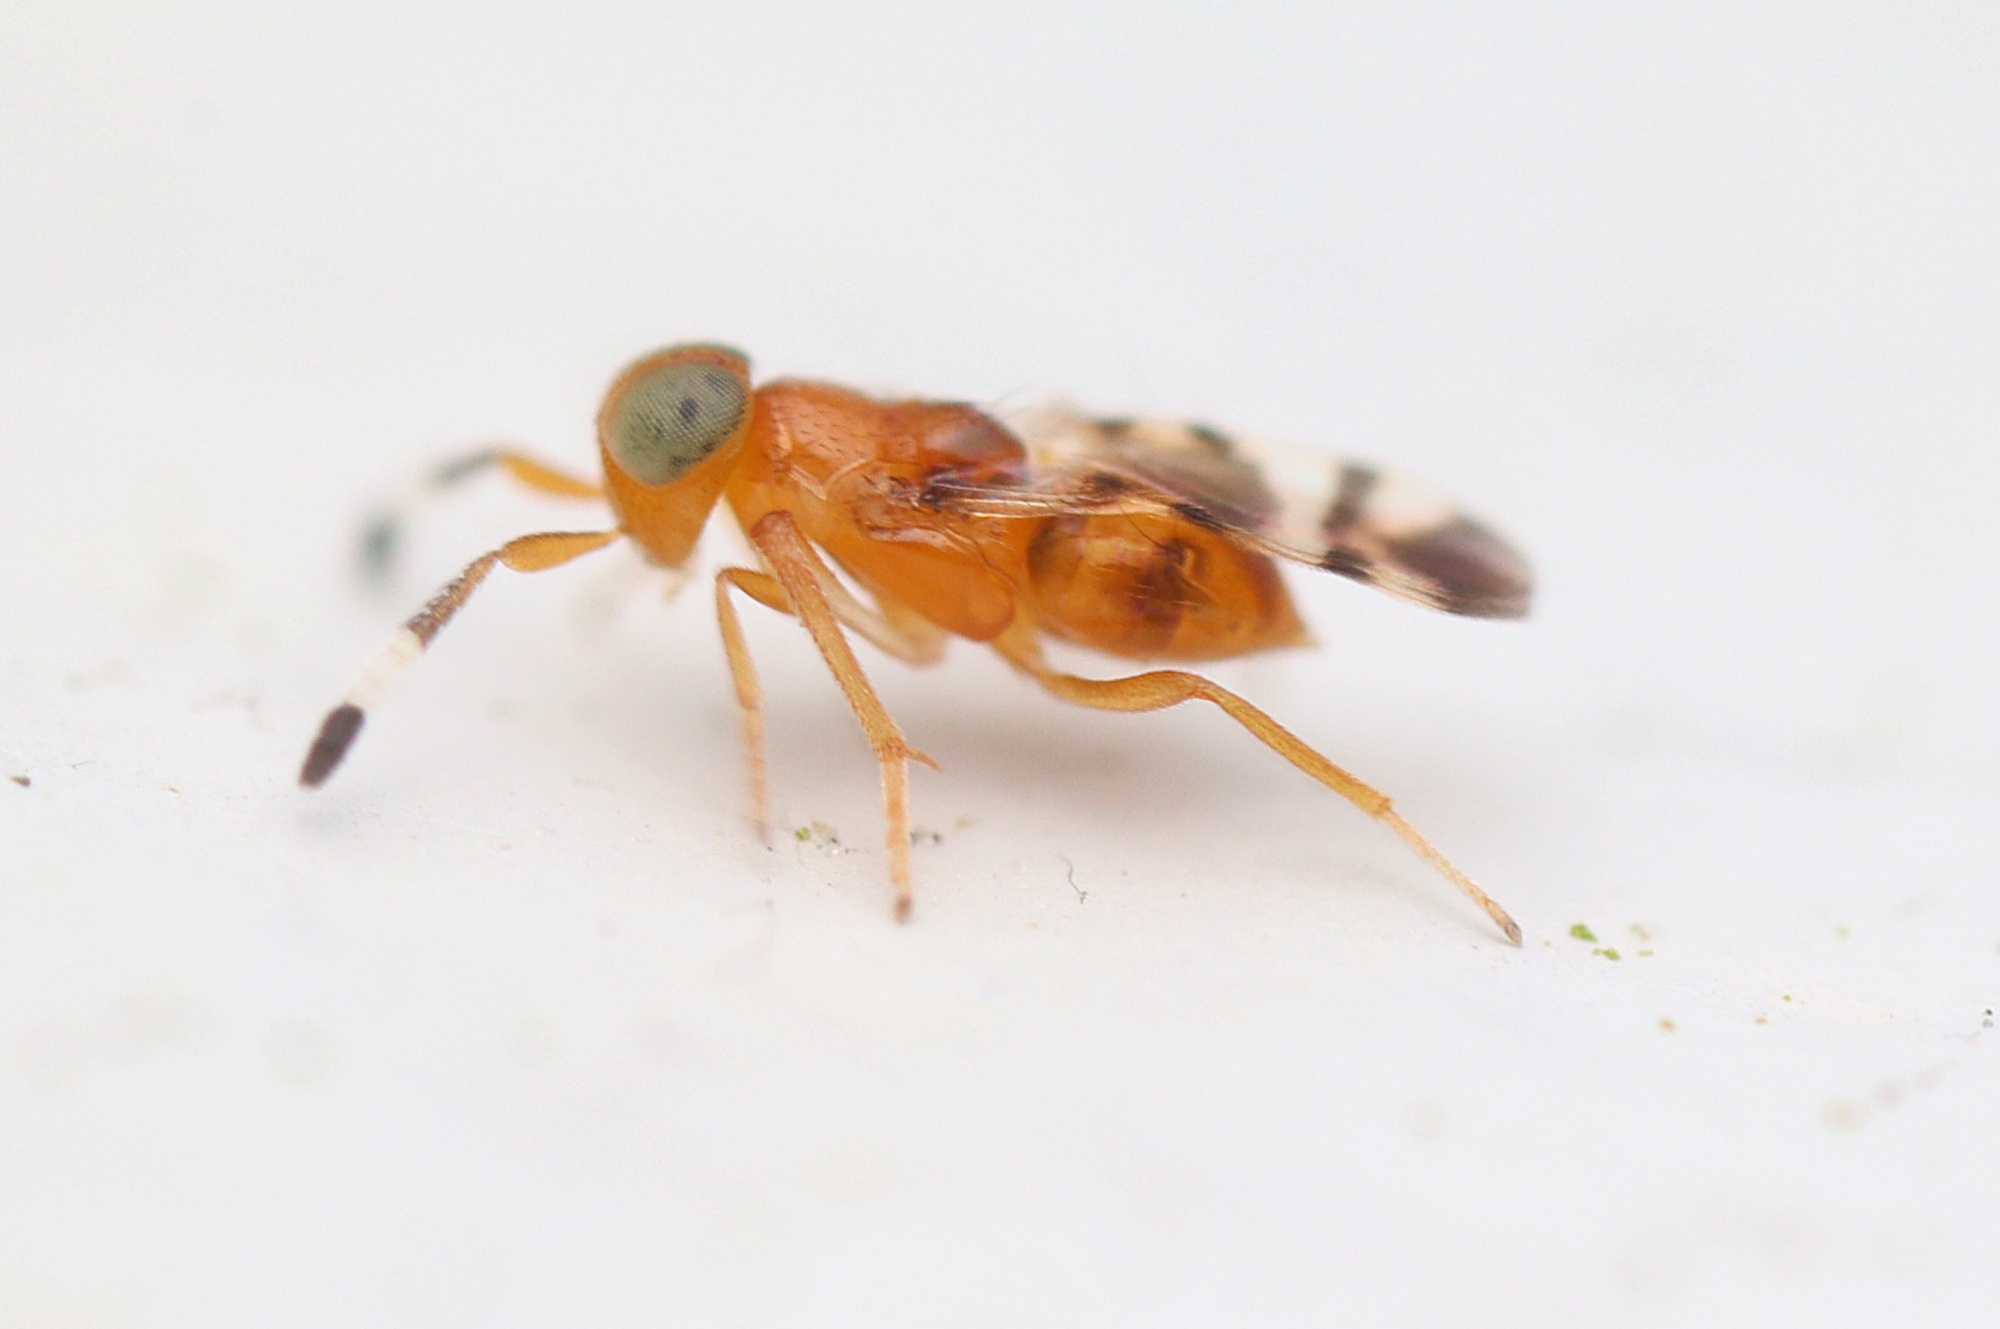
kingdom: Animalia
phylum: Arthropoda
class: Insecta
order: Hymenoptera
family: Encyrtidae
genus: Microterys
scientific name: Microterys nietneri
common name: Parasitoid wasp
